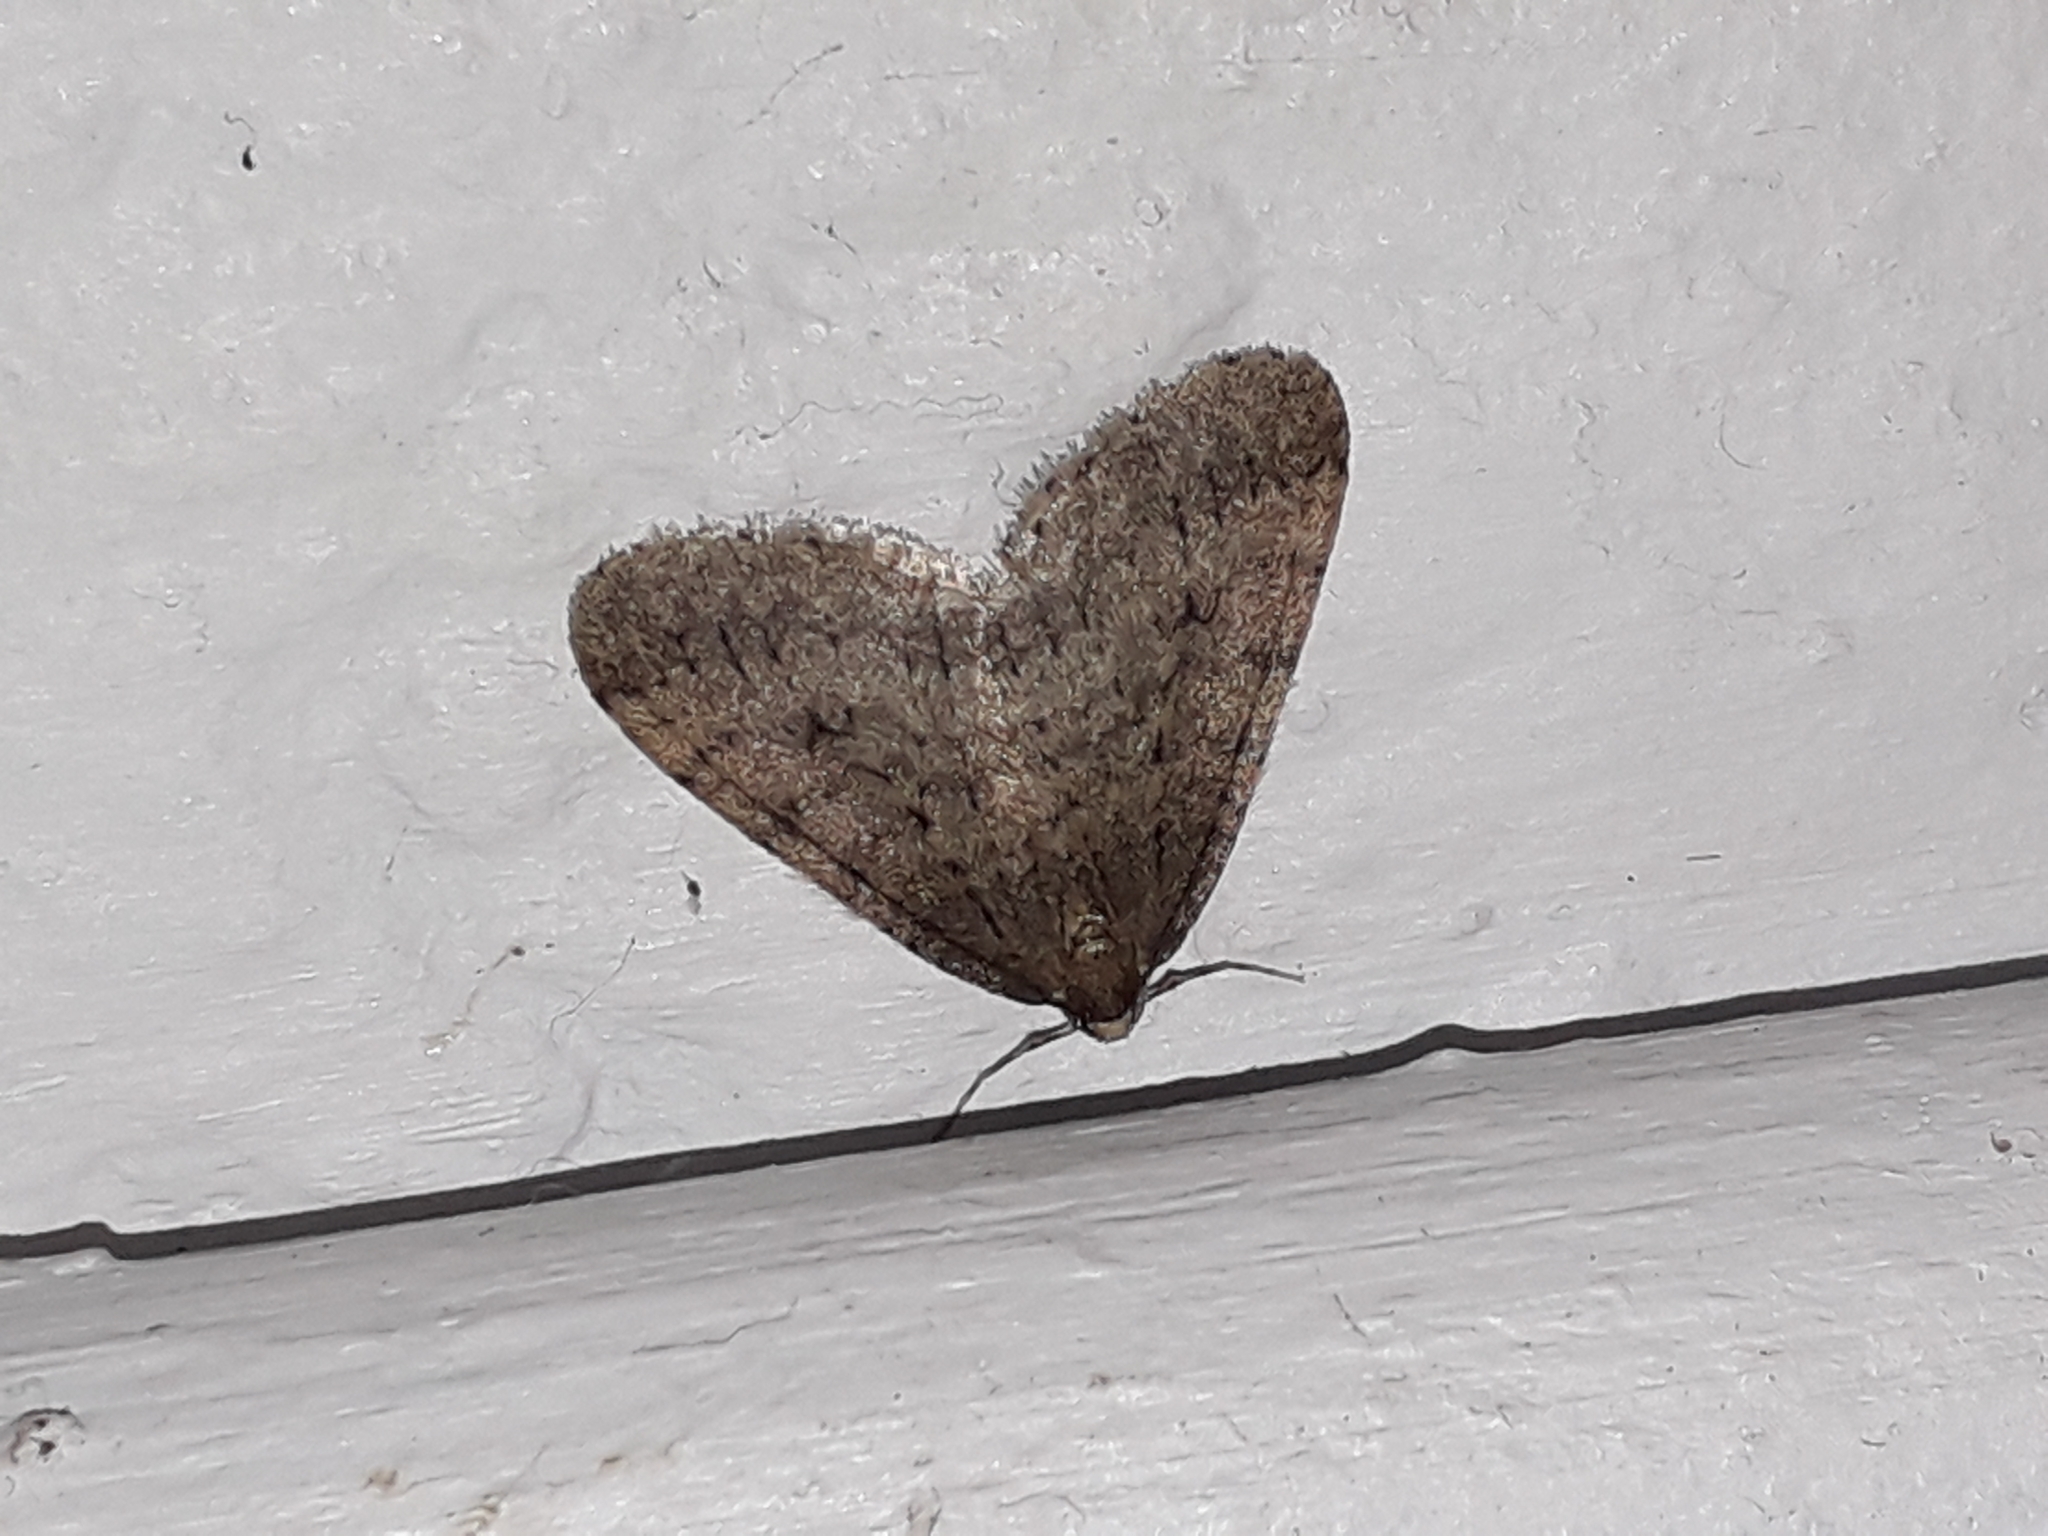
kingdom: Animalia
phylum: Arthropoda
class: Insecta
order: Lepidoptera
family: Geometridae
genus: Operophtera
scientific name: Operophtera brumata
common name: Winter moth
